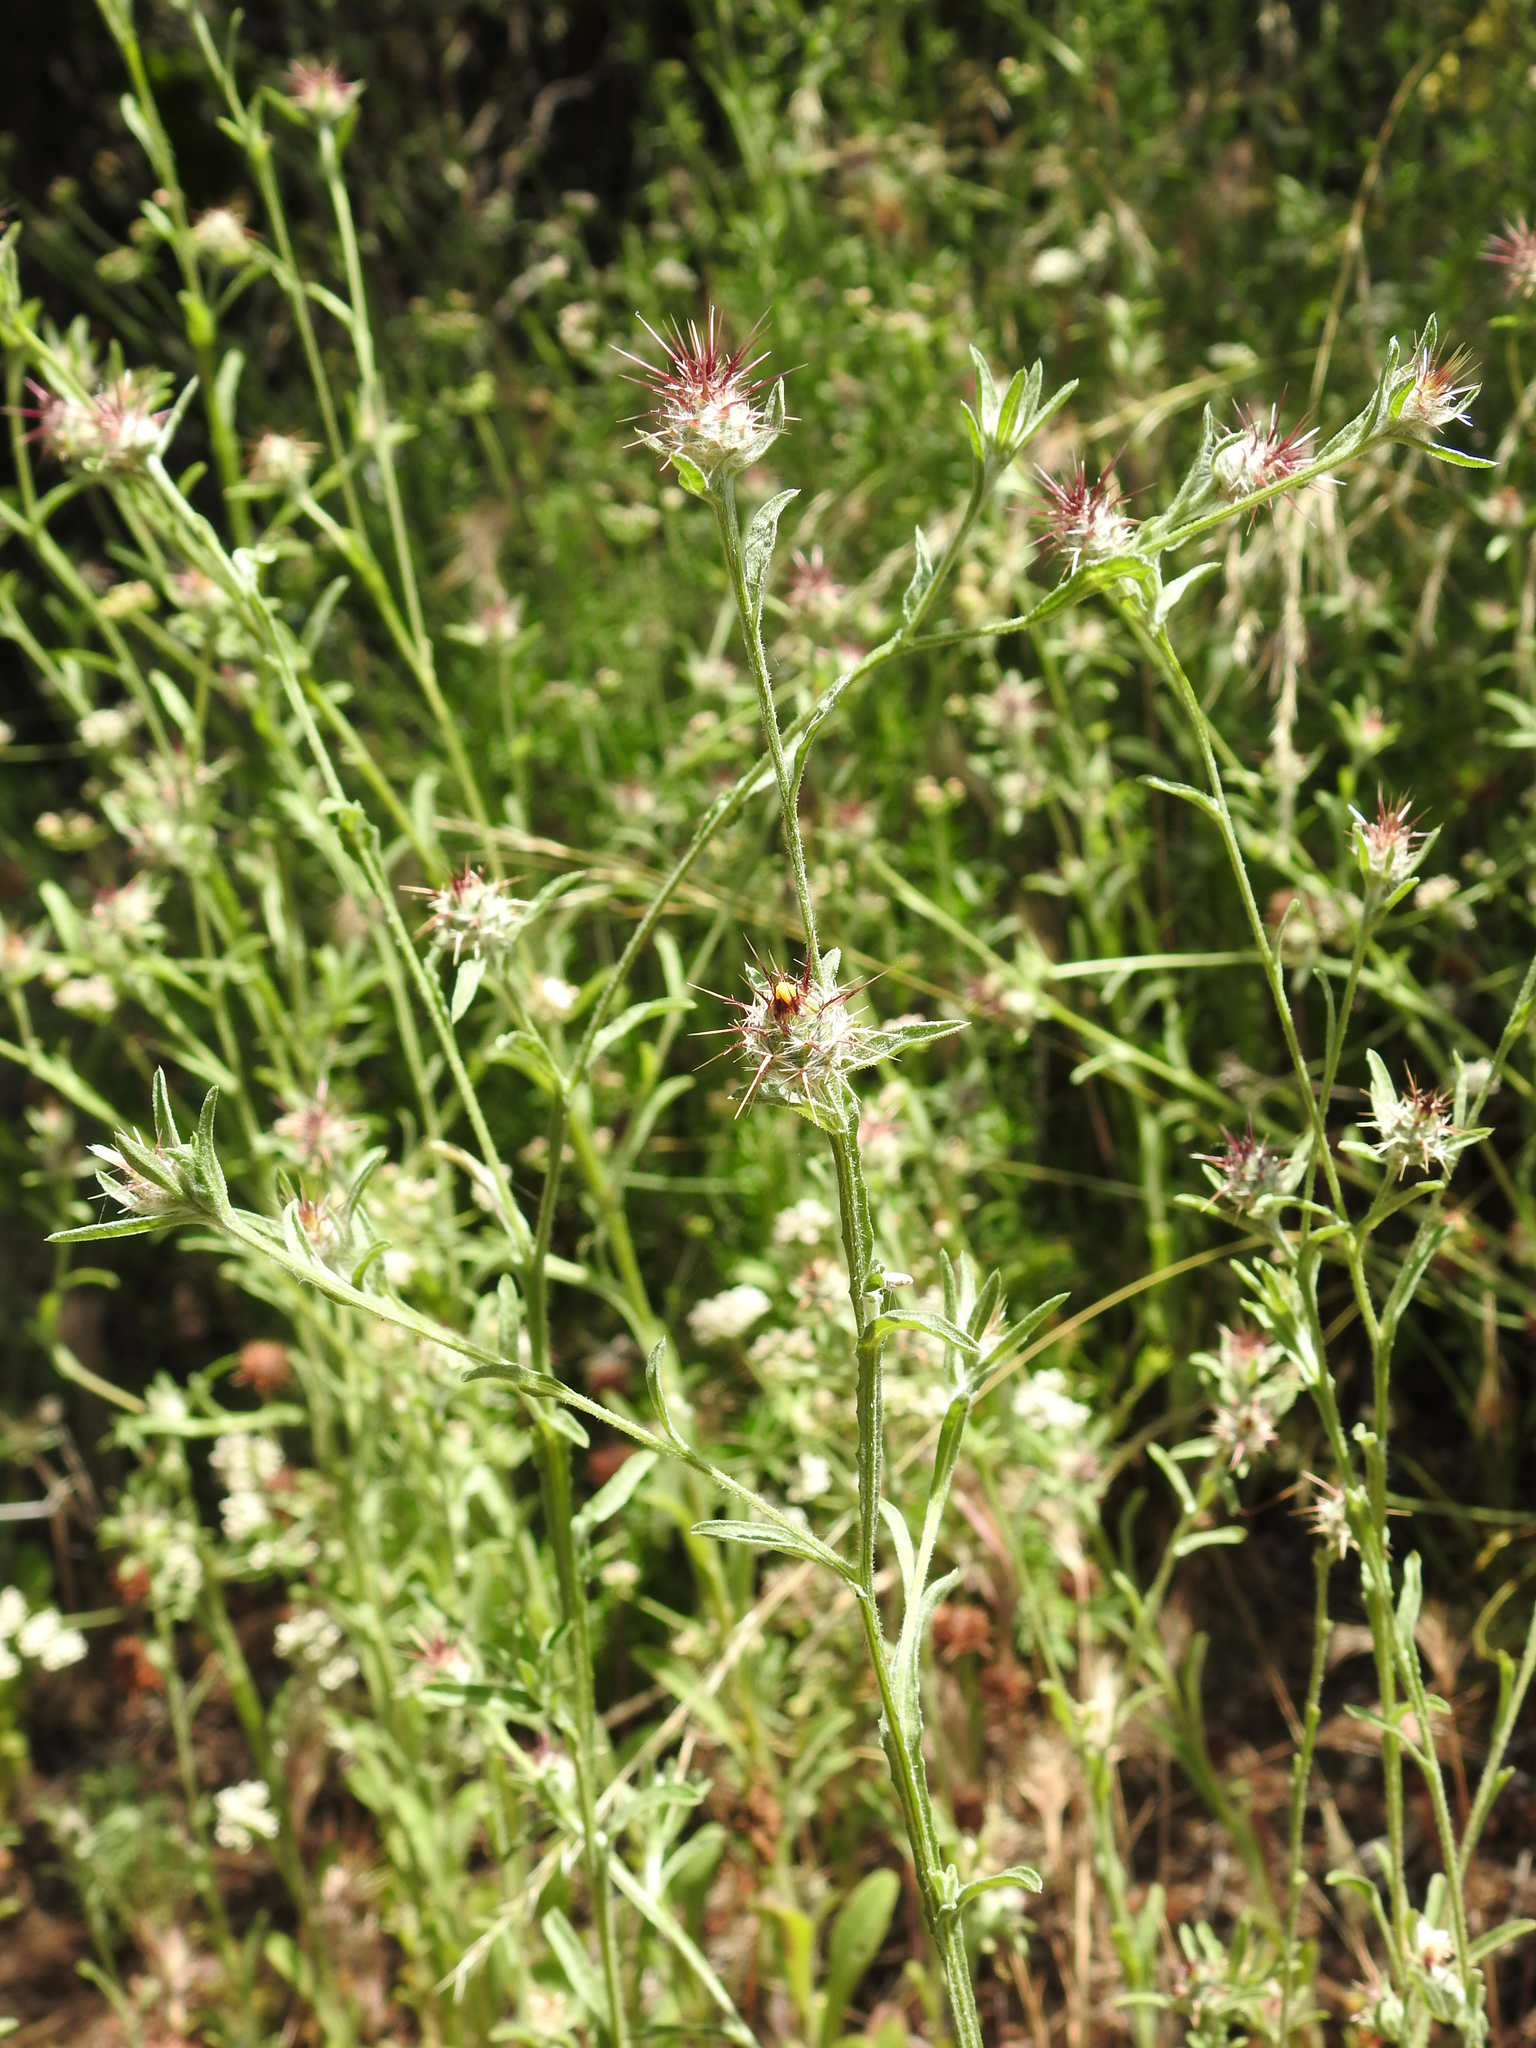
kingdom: Plantae
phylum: Tracheophyta
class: Magnoliopsida
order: Asterales
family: Asteraceae
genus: Centaurea
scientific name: Centaurea melitensis
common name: Maltese star-thistle
